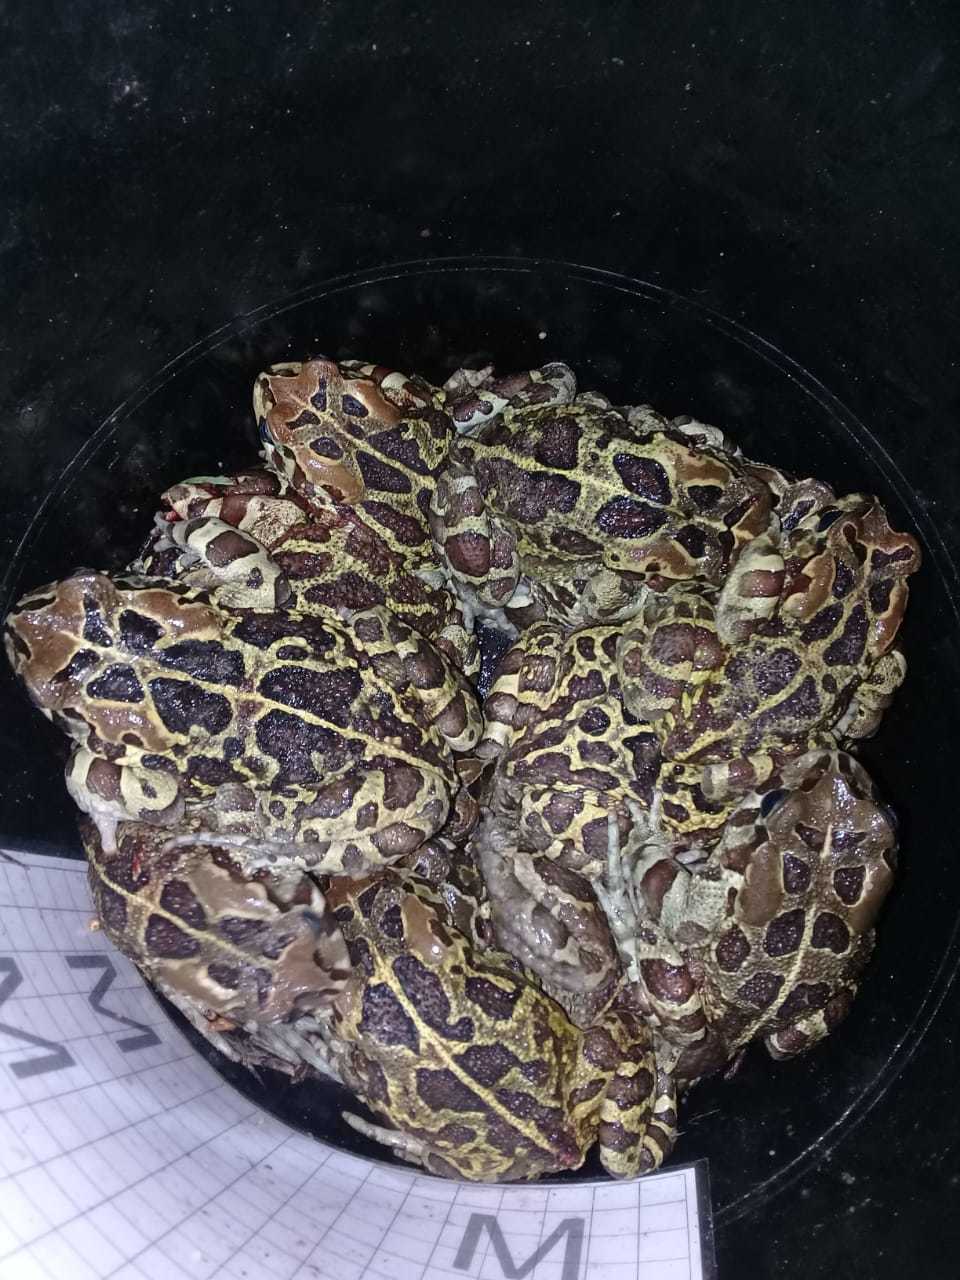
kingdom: Animalia
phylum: Chordata
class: Amphibia
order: Anura
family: Bufonidae
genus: Sclerophrys
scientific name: Sclerophrys pantherina
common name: Panther toad
